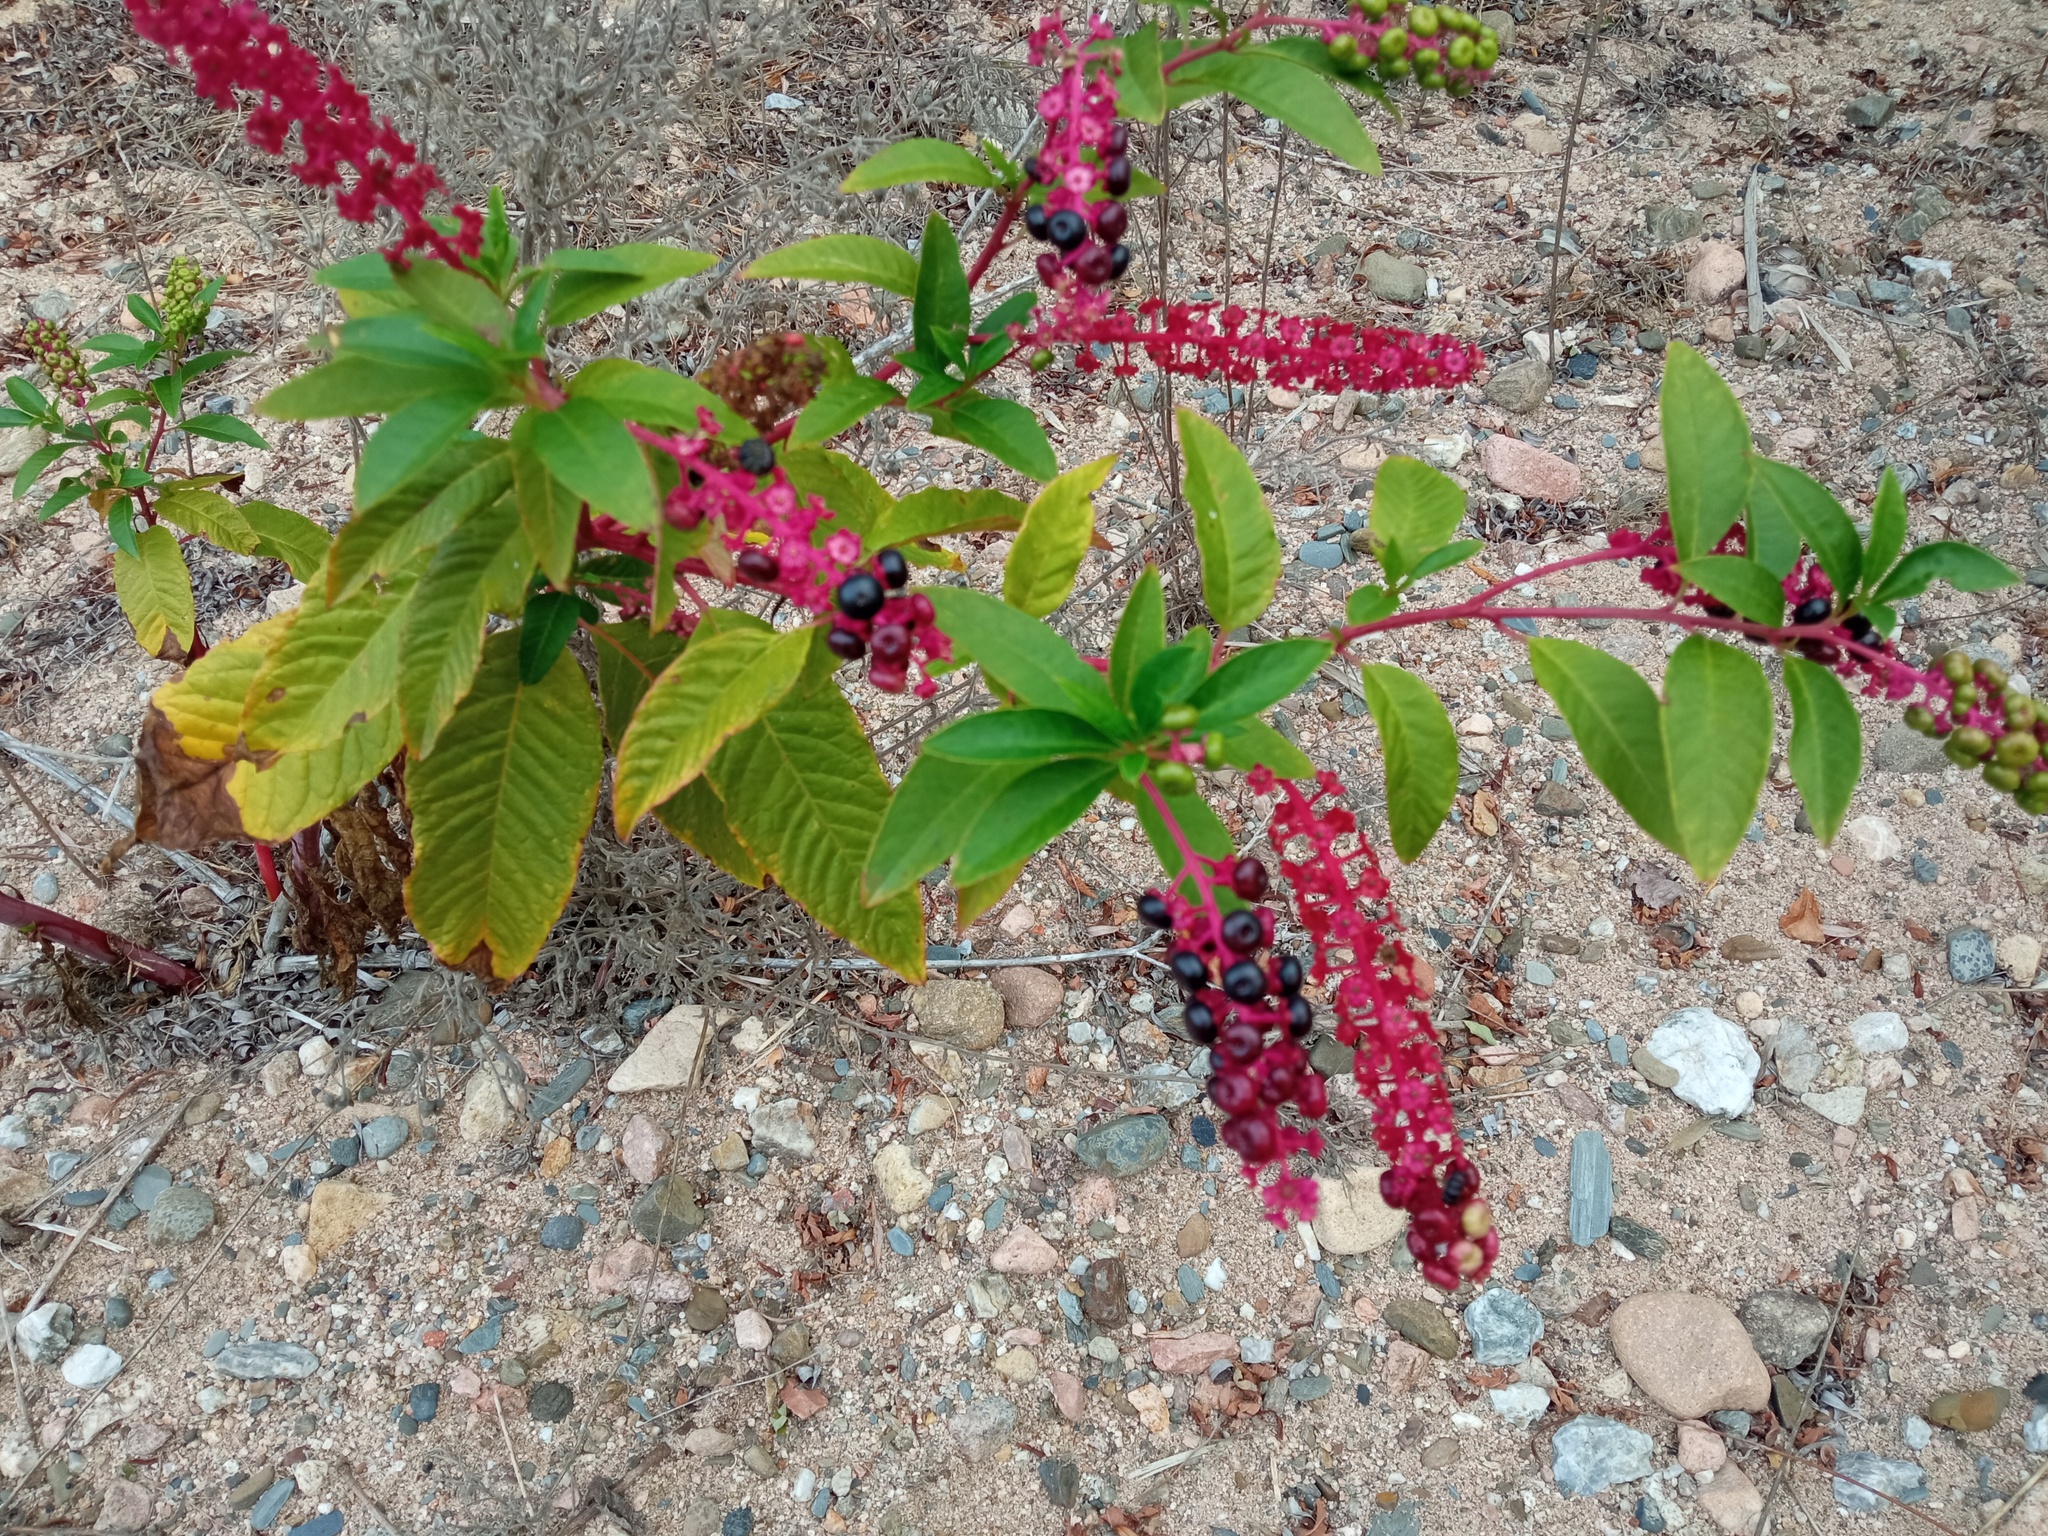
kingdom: Plantae
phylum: Tracheophyta
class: Magnoliopsida
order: Caryophyllales
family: Phytolaccaceae
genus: Phytolacca
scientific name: Phytolacca americana
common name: American pokeweed
